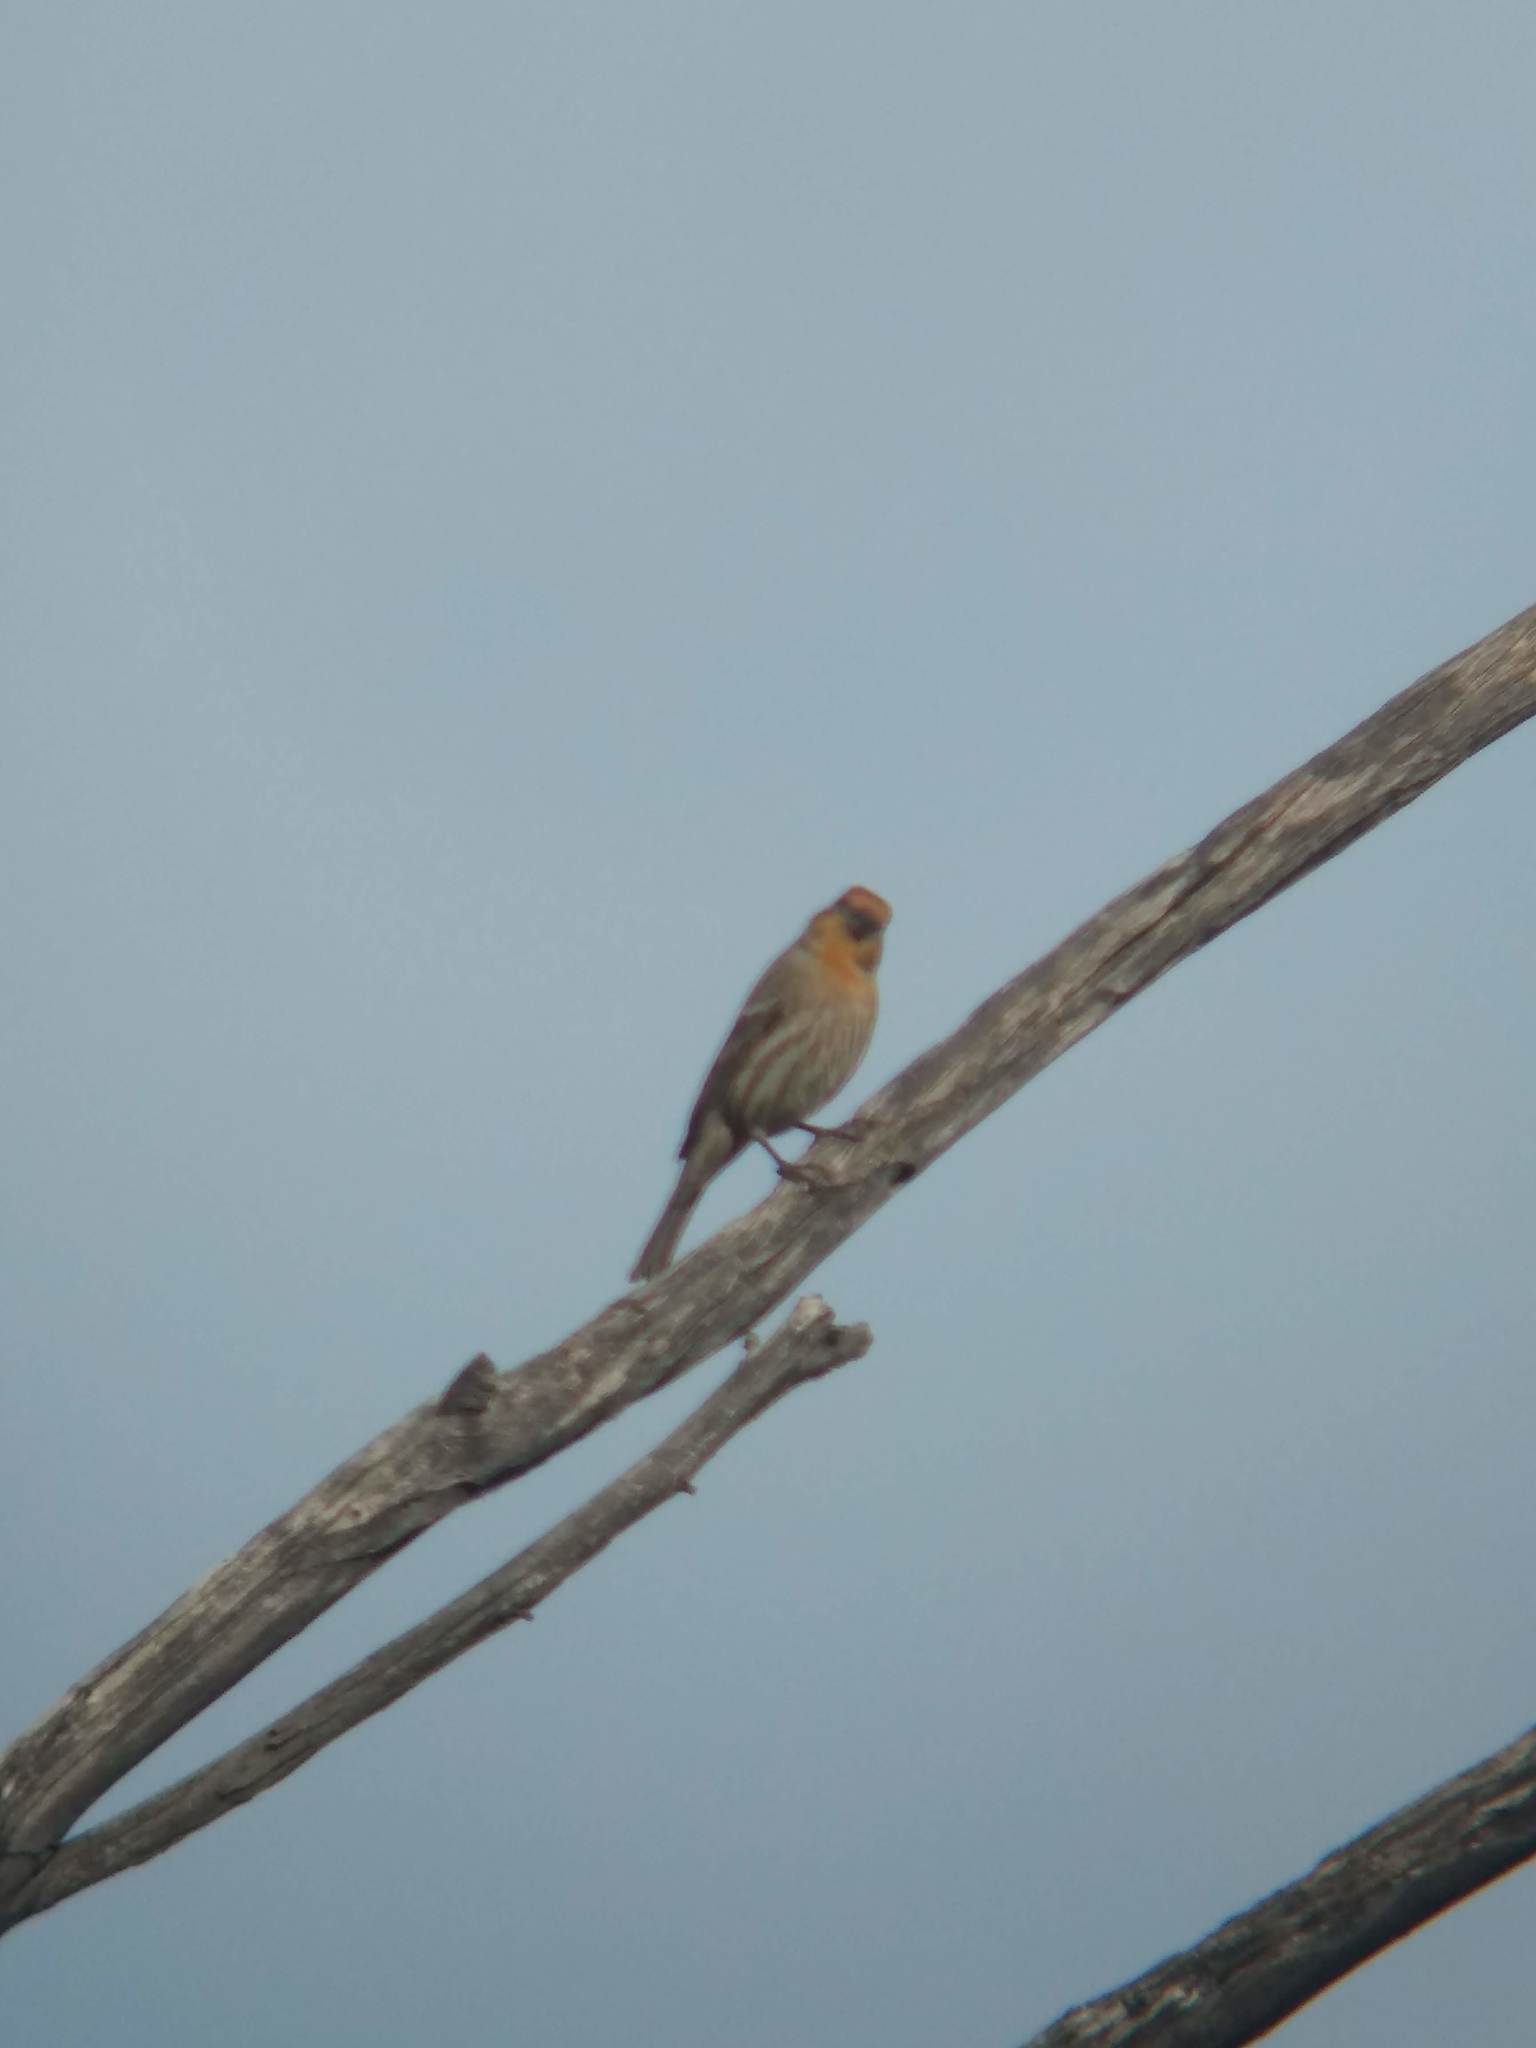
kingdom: Animalia
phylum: Chordata
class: Aves
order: Passeriformes
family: Fringillidae
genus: Haemorhous
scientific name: Haemorhous mexicanus
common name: House finch
